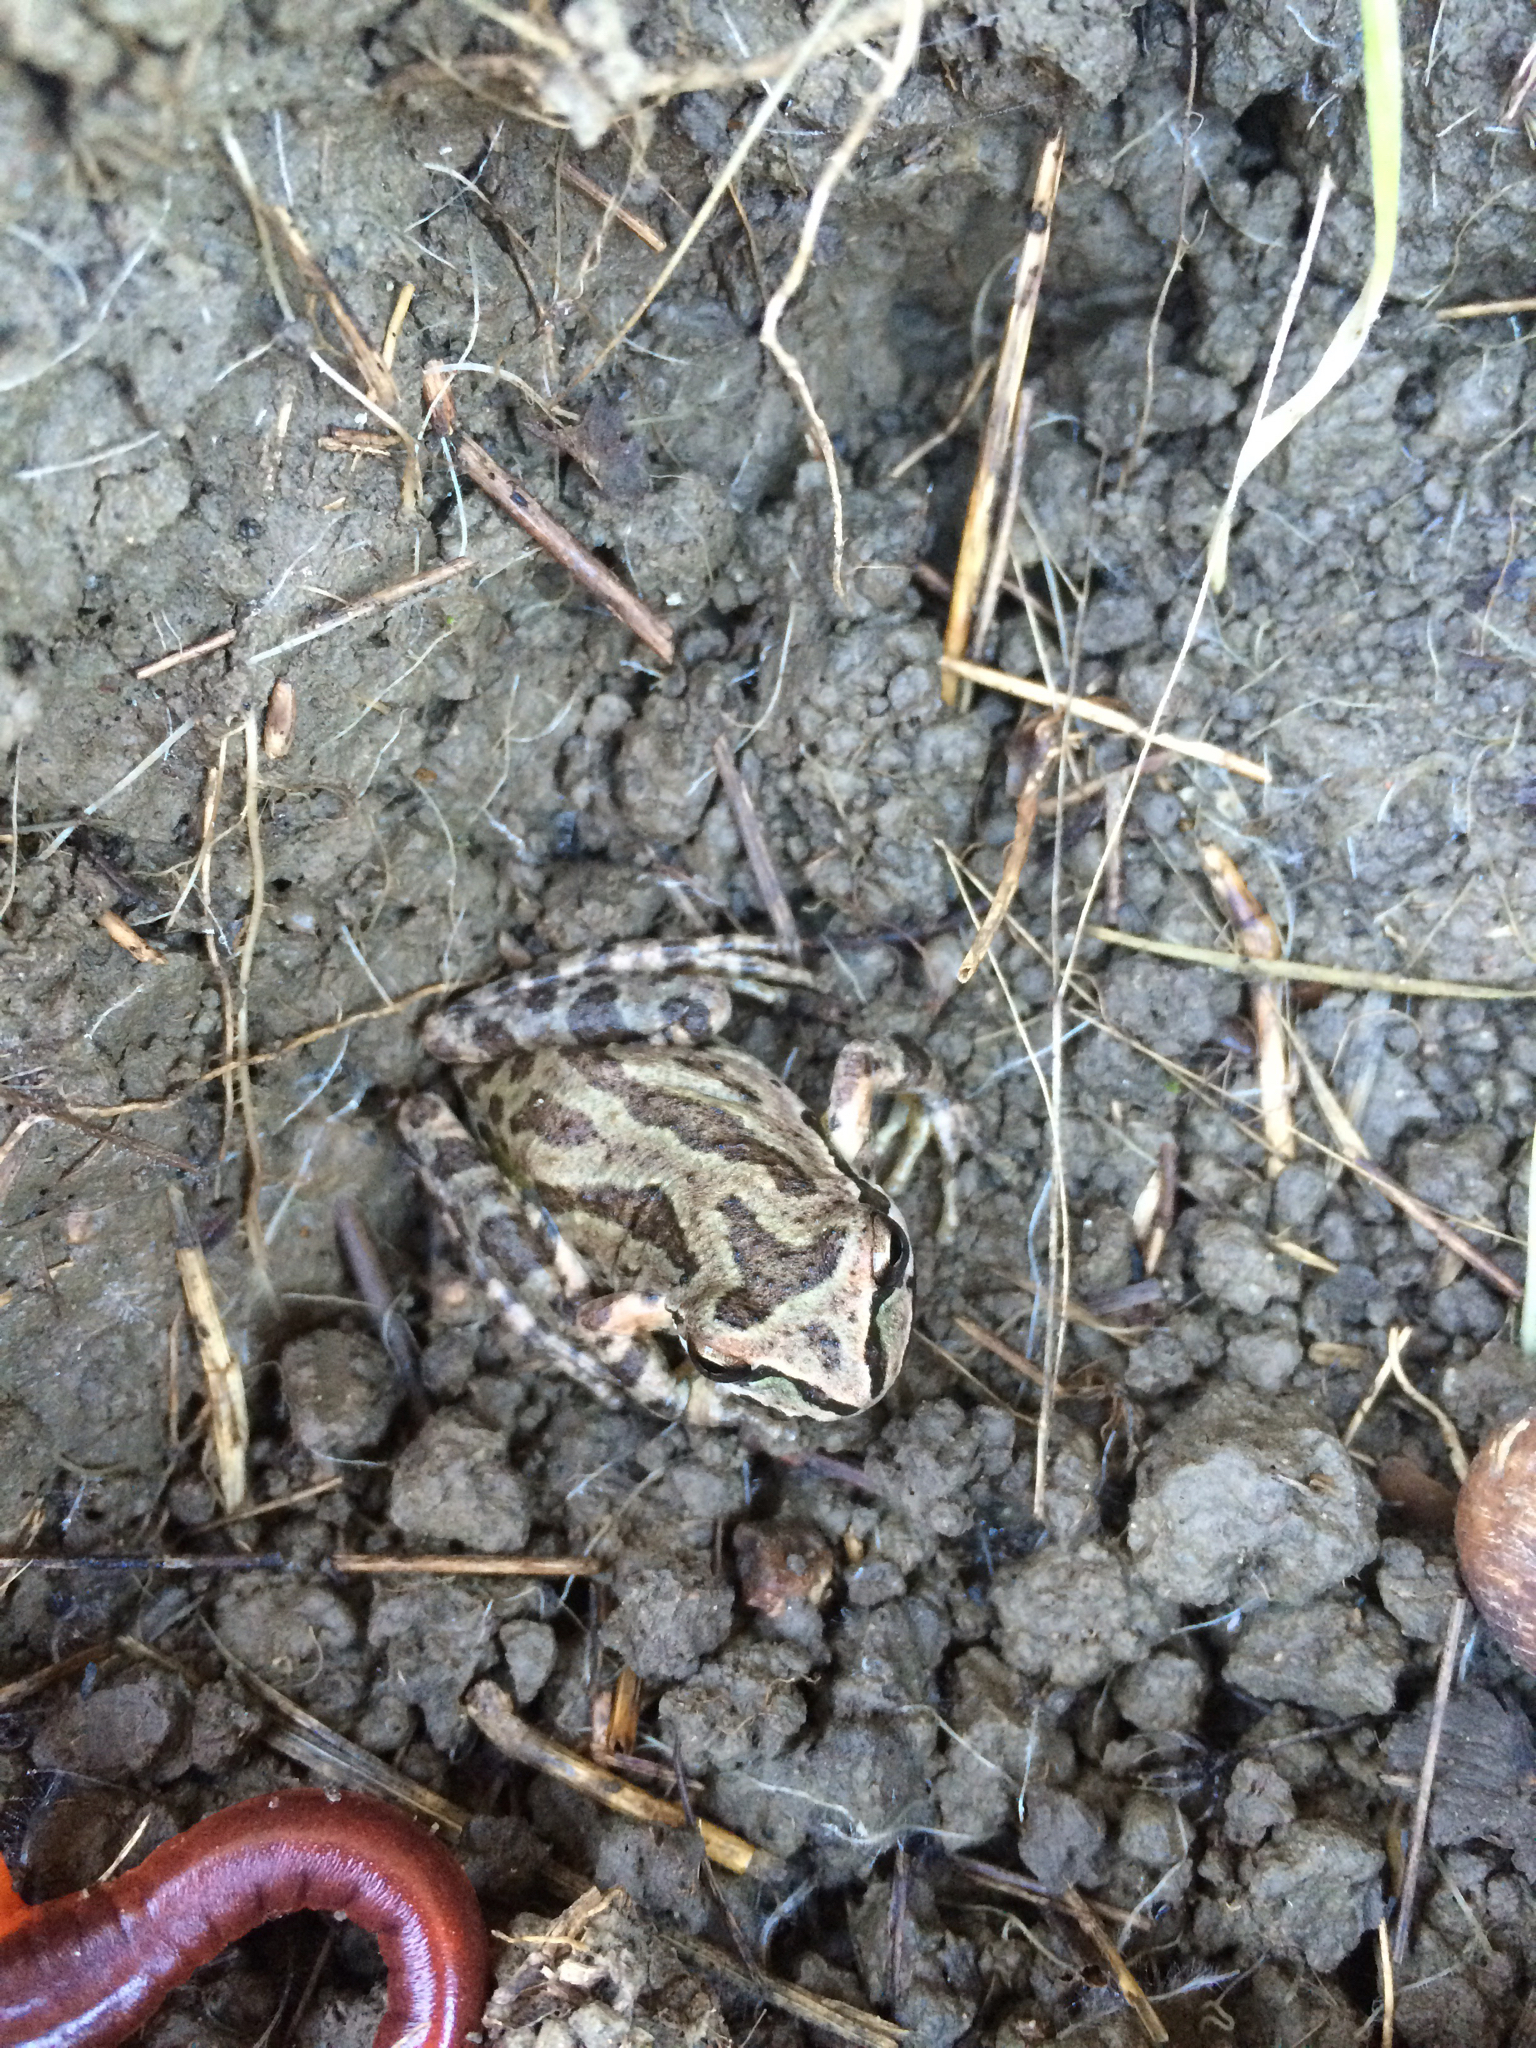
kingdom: Animalia
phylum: Chordata
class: Amphibia
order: Anura
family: Hylidae
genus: Pseudacris
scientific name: Pseudacris regilla
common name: Pacific chorus frog
